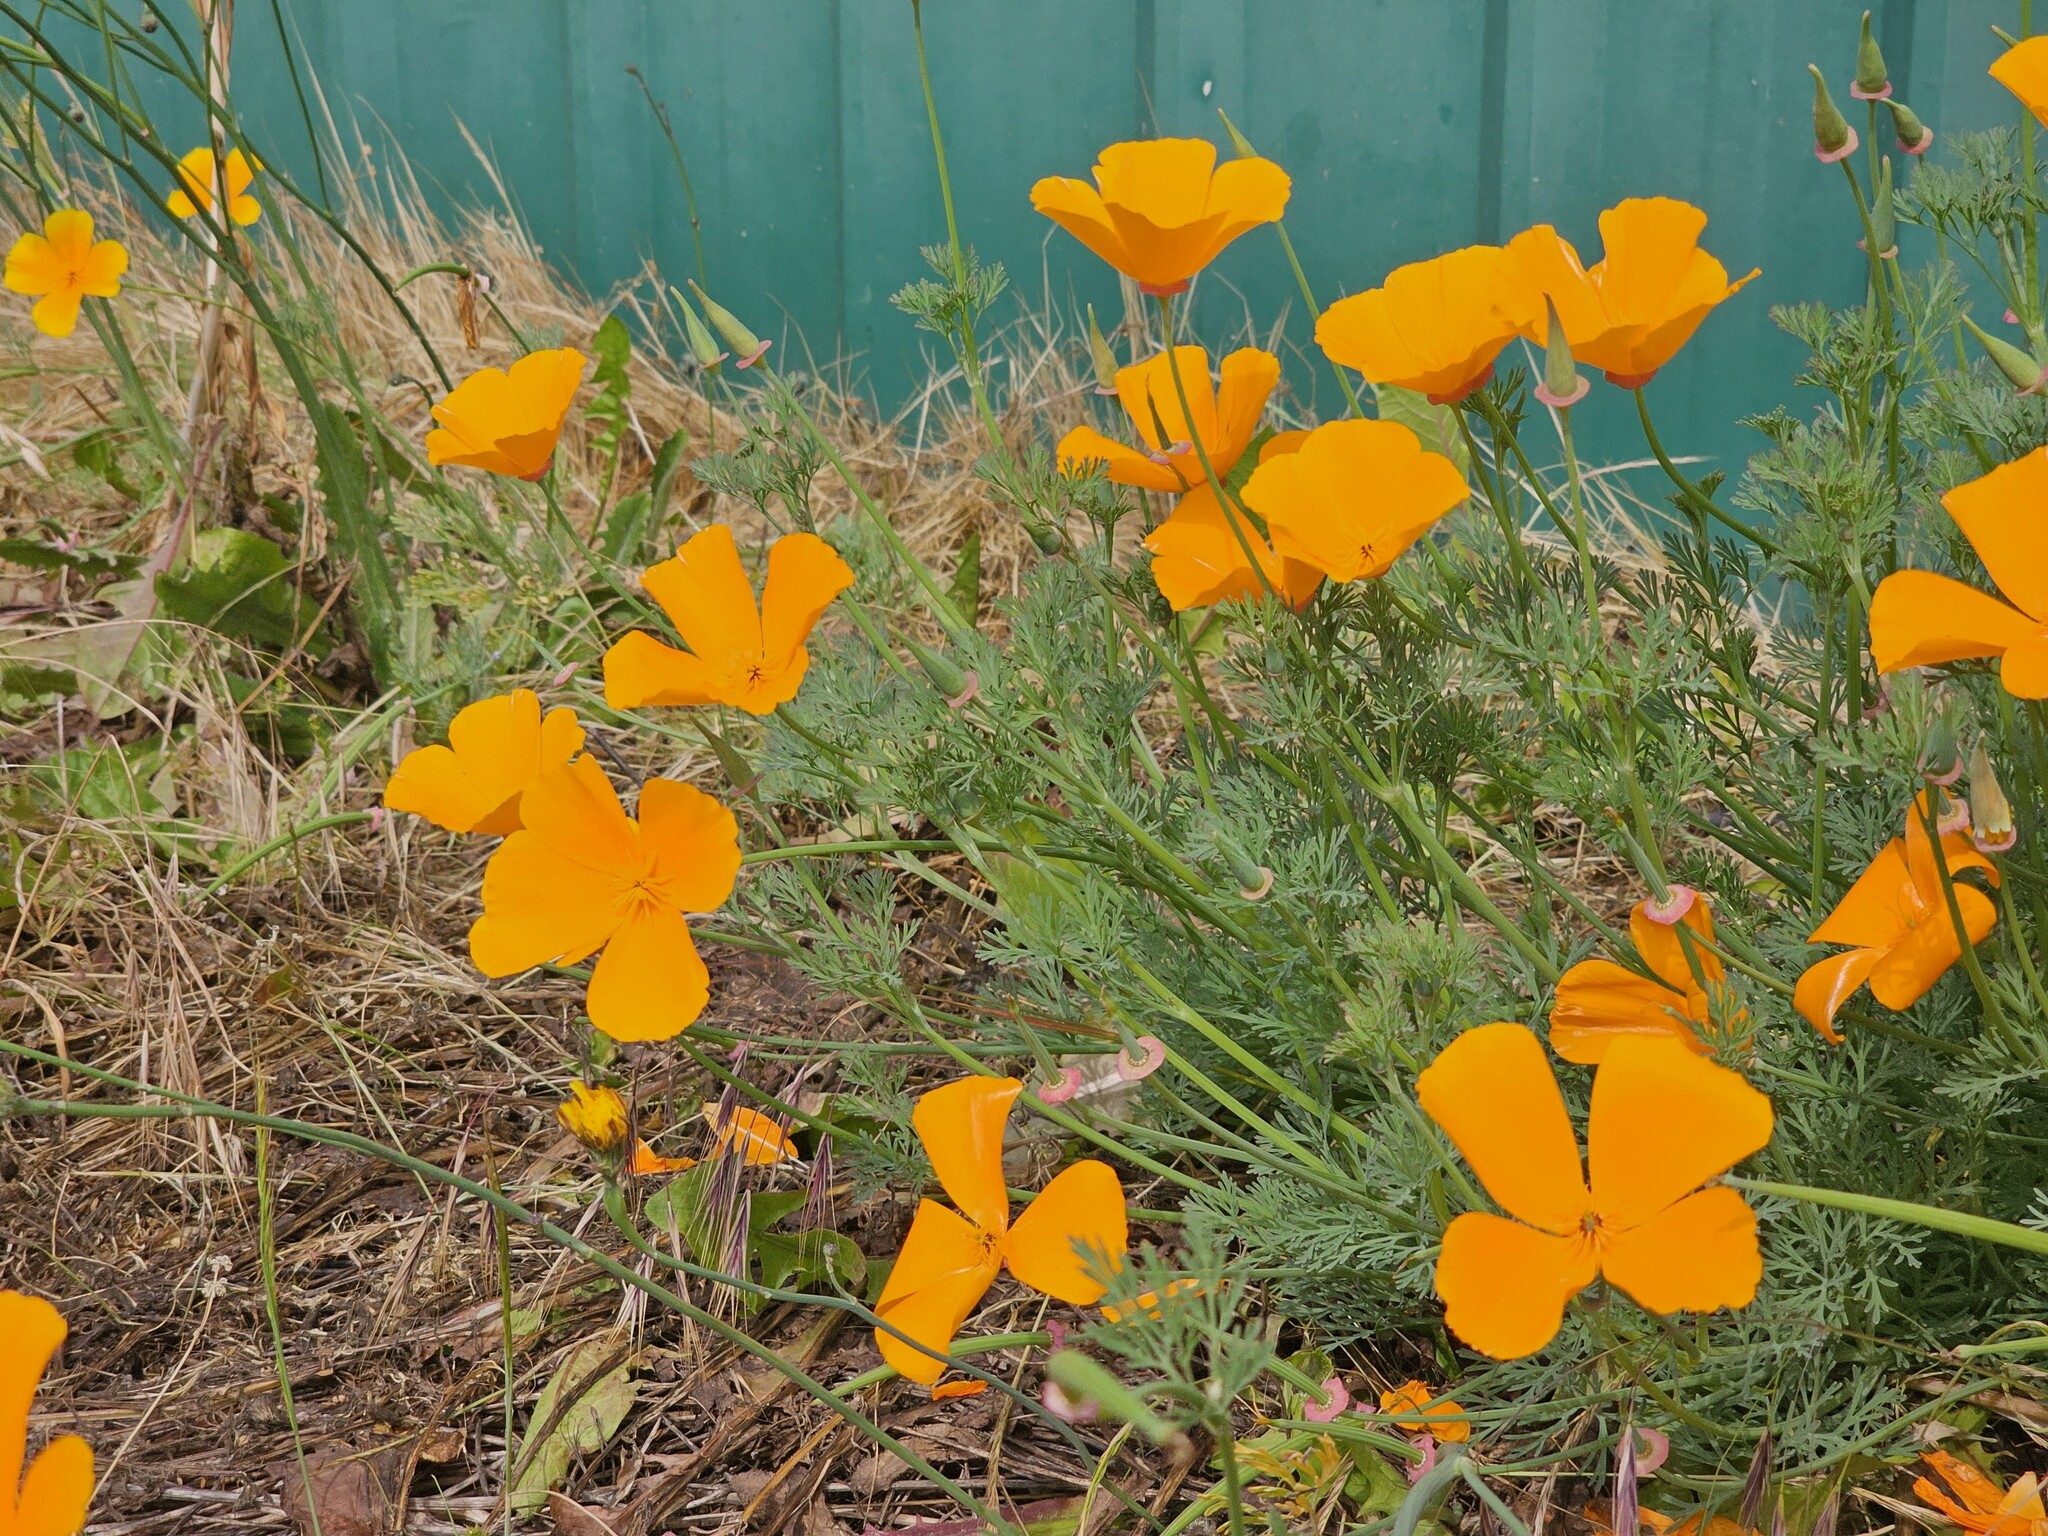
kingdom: Plantae
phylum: Tracheophyta
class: Magnoliopsida
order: Ranunculales
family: Papaveraceae
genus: Eschscholzia
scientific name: Eschscholzia californica
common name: California poppy
